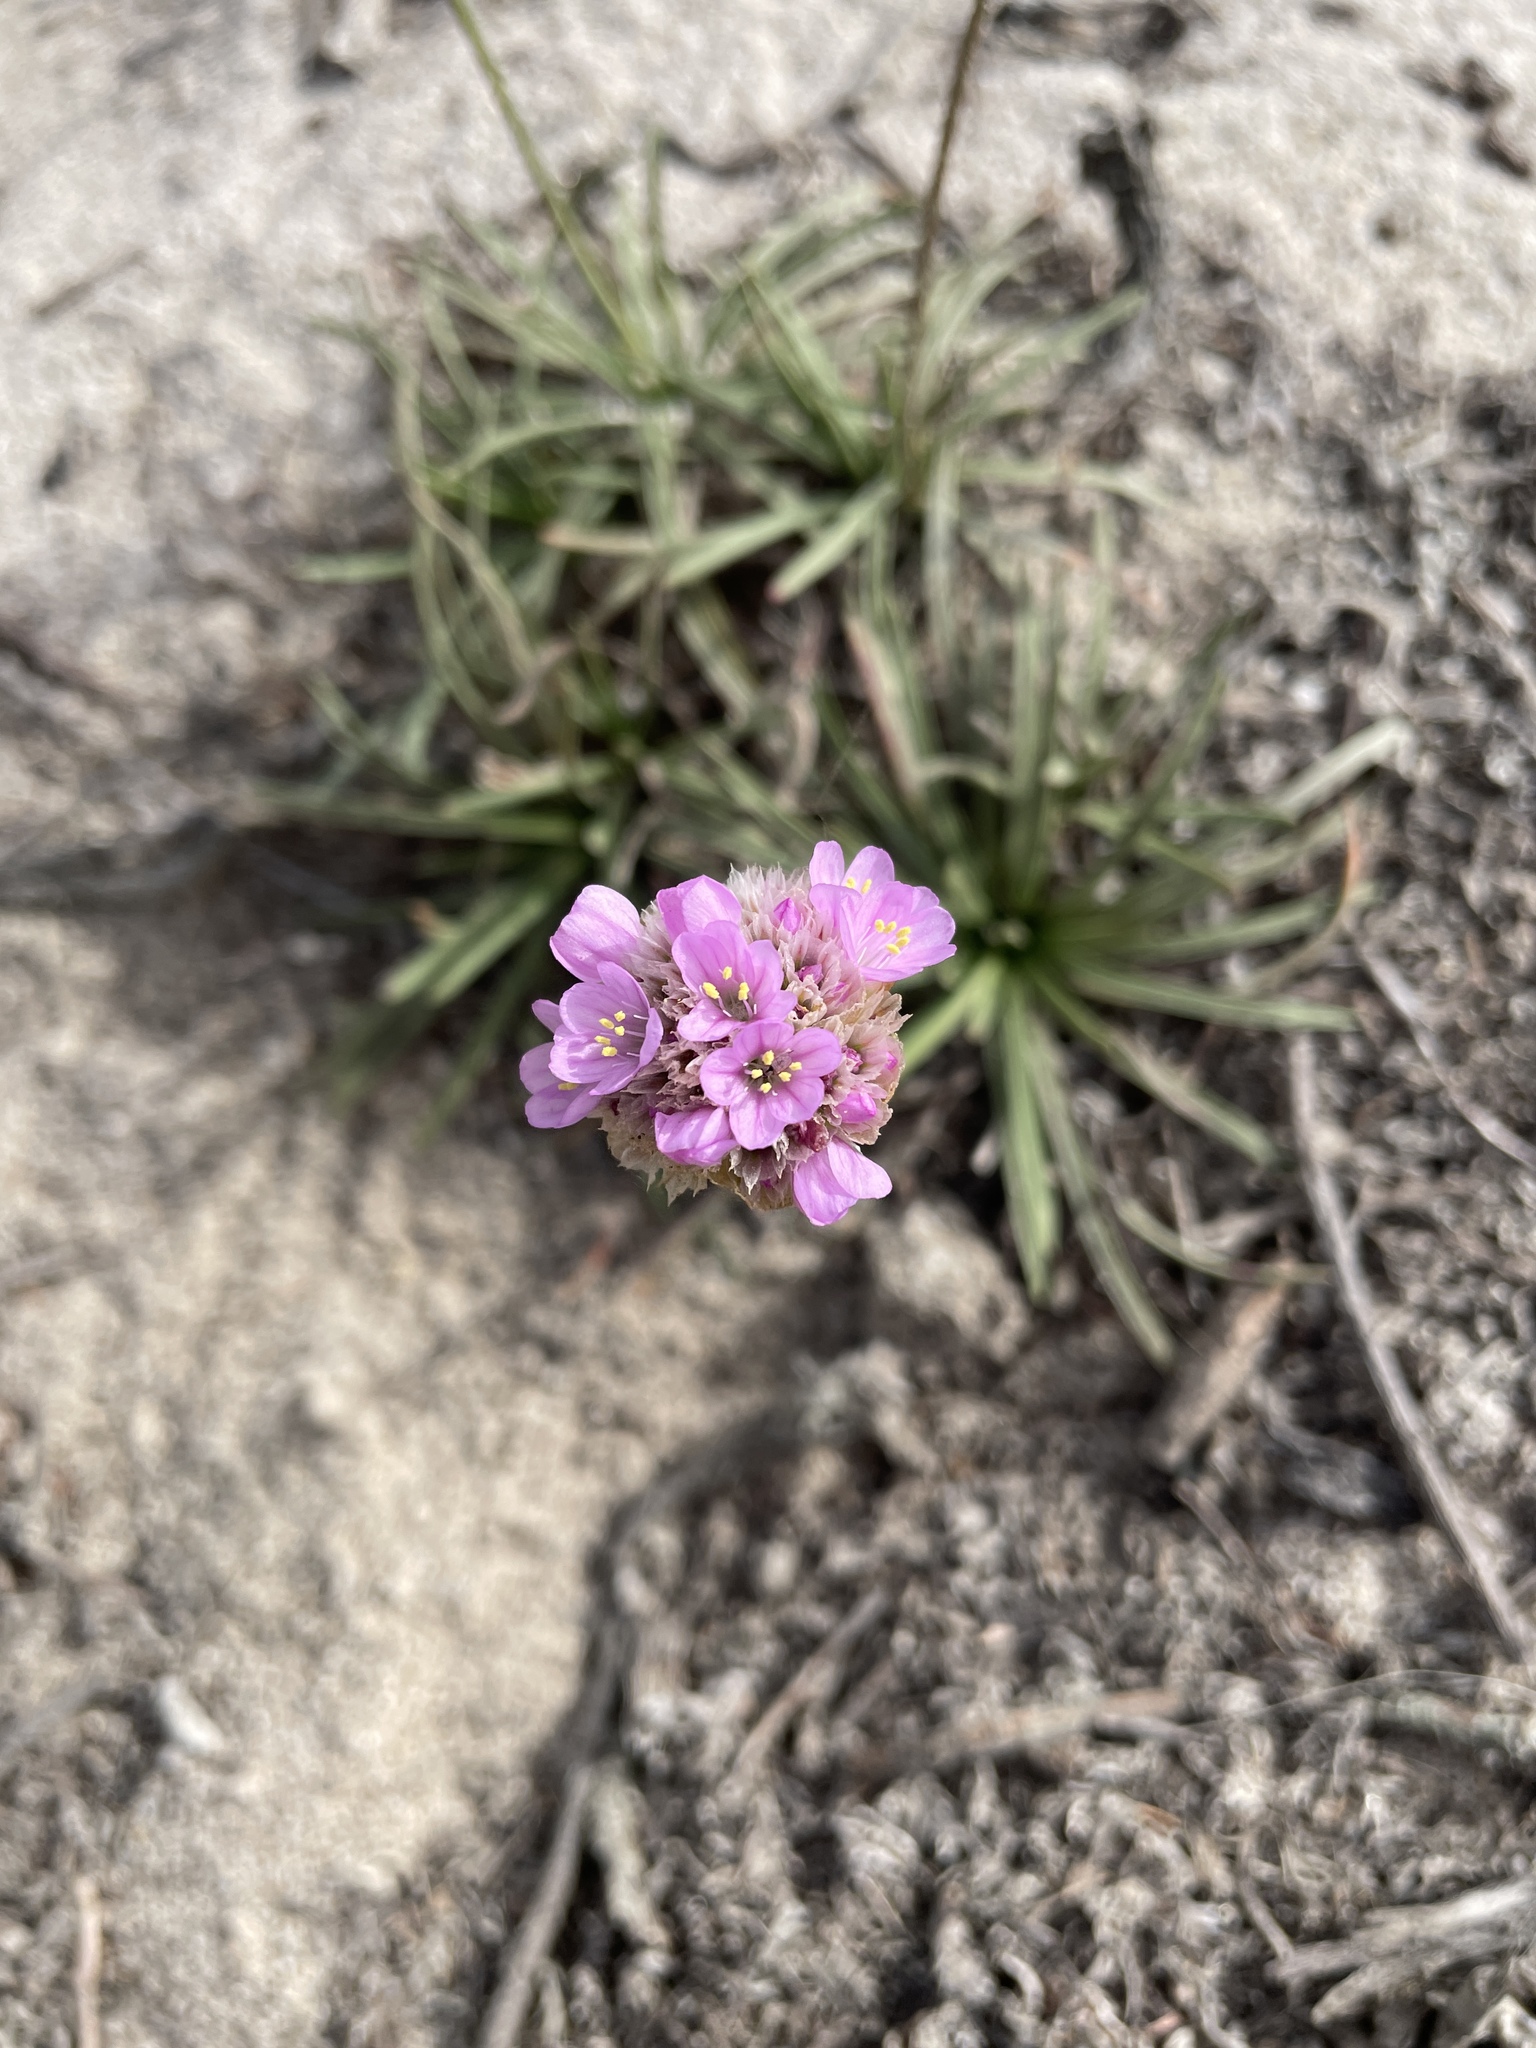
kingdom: Plantae
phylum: Tracheophyta
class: Magnoliopsida
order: Caryophyllales
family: Plumbaginaceae
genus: Armeria
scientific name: Armeria maritima
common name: Thrift
